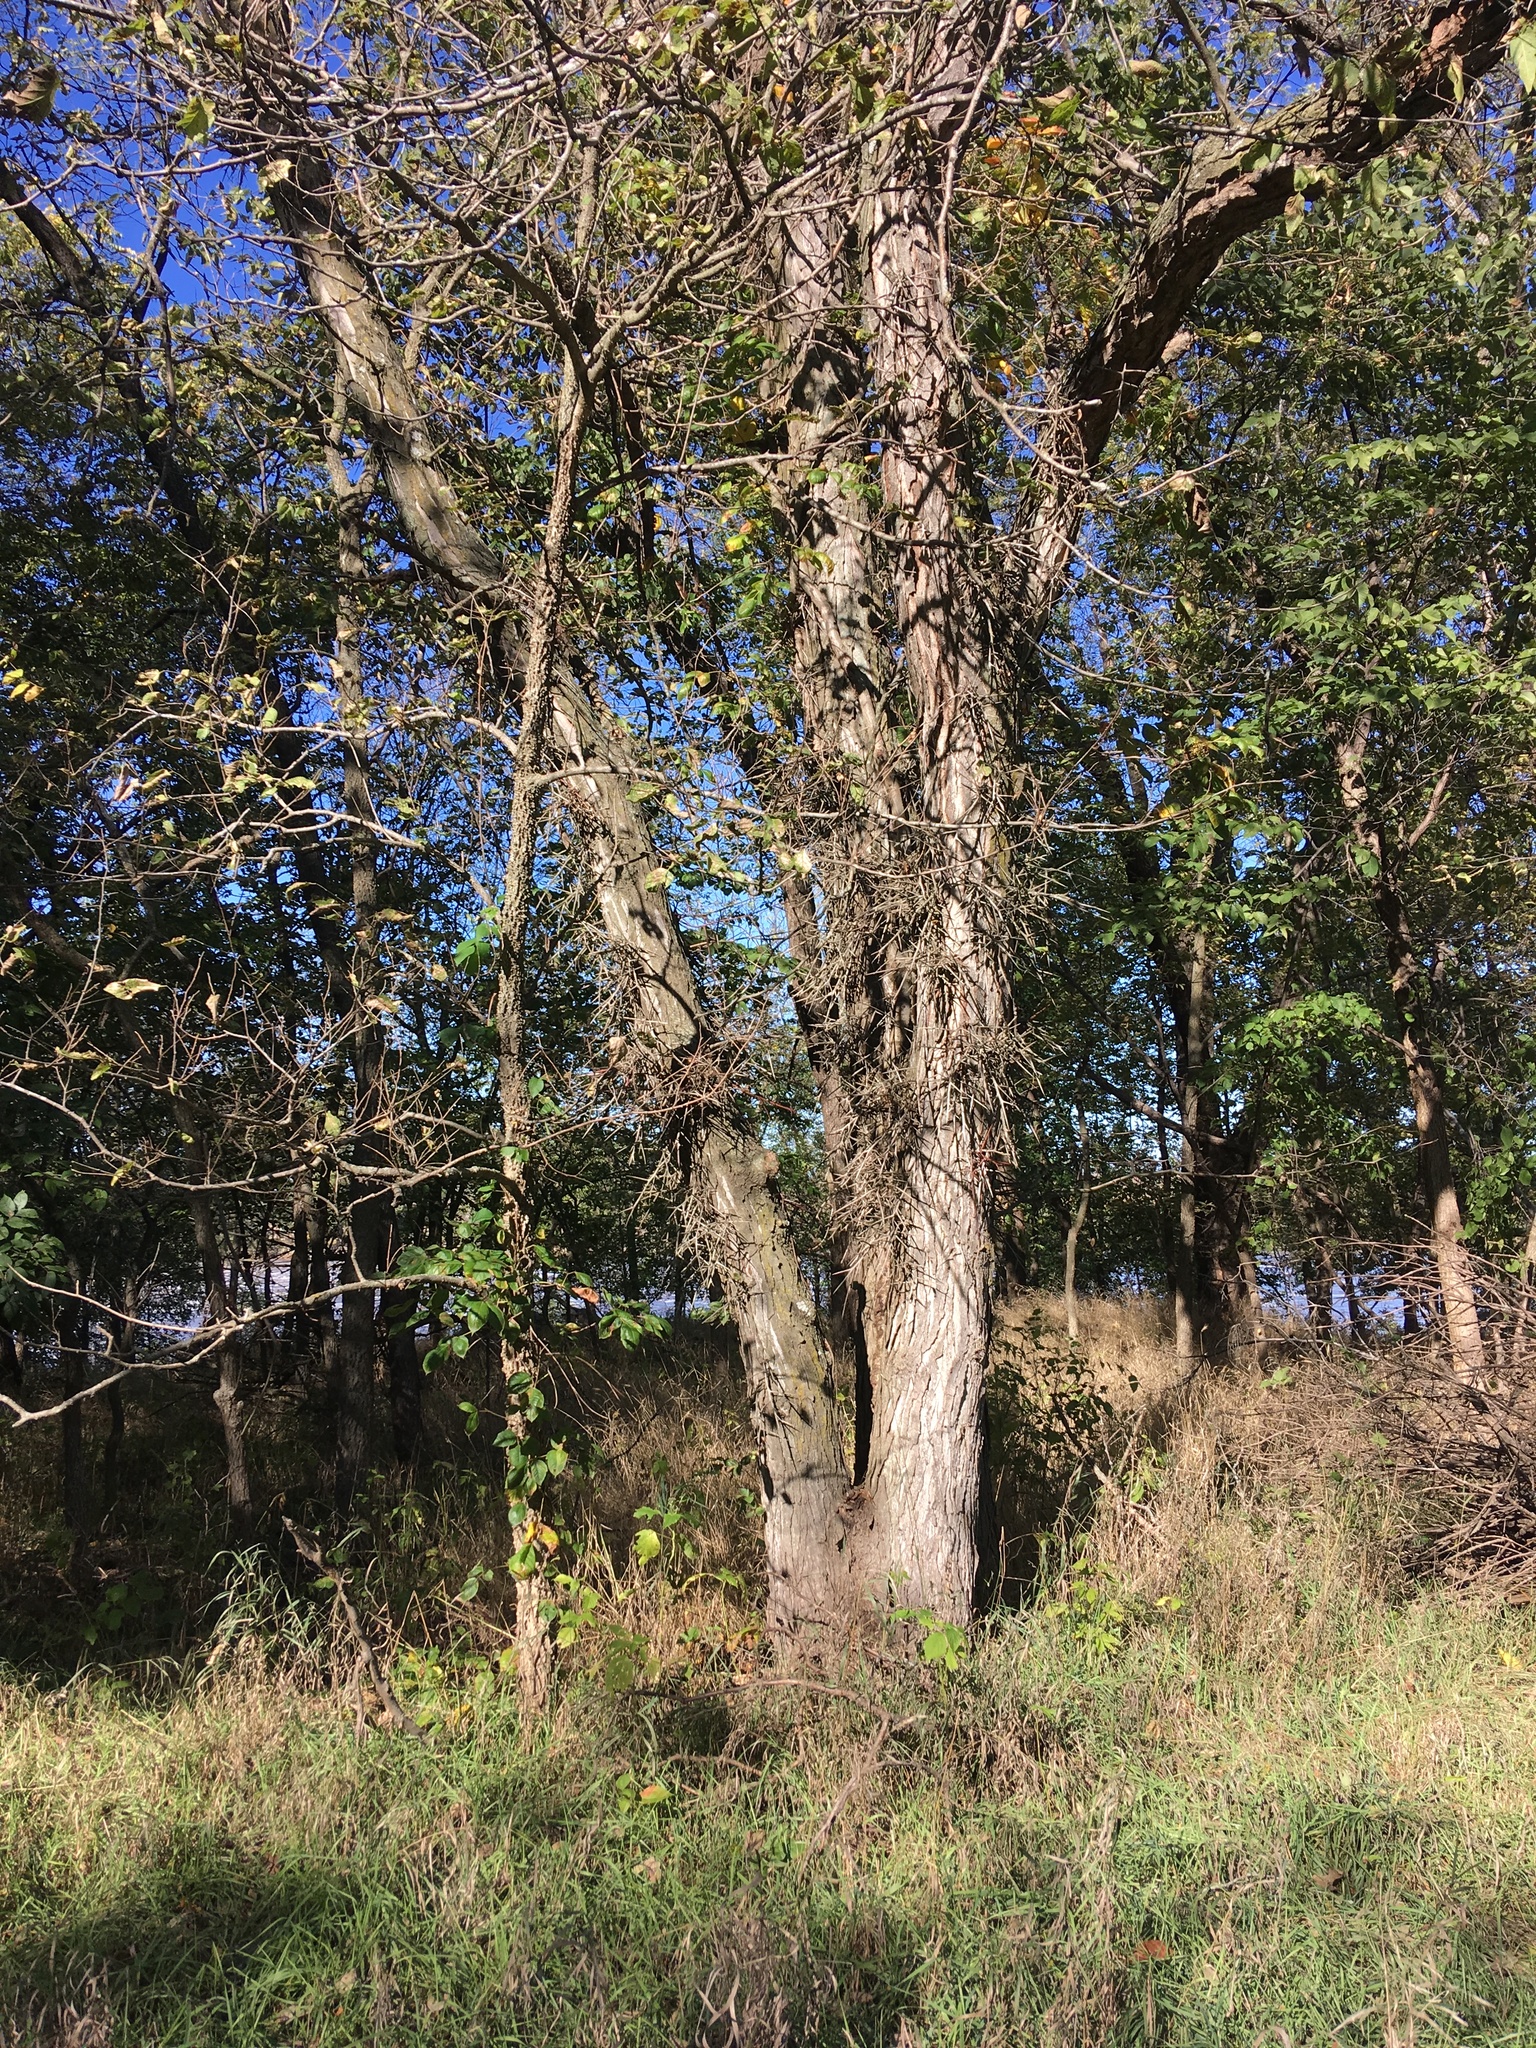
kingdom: Plantae
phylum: Tracheophyta
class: Magnoliopsida
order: Fabales
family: Fabaceae
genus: Gleditsia
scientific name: Gleditsia triacanthos
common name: Common honeylocust
